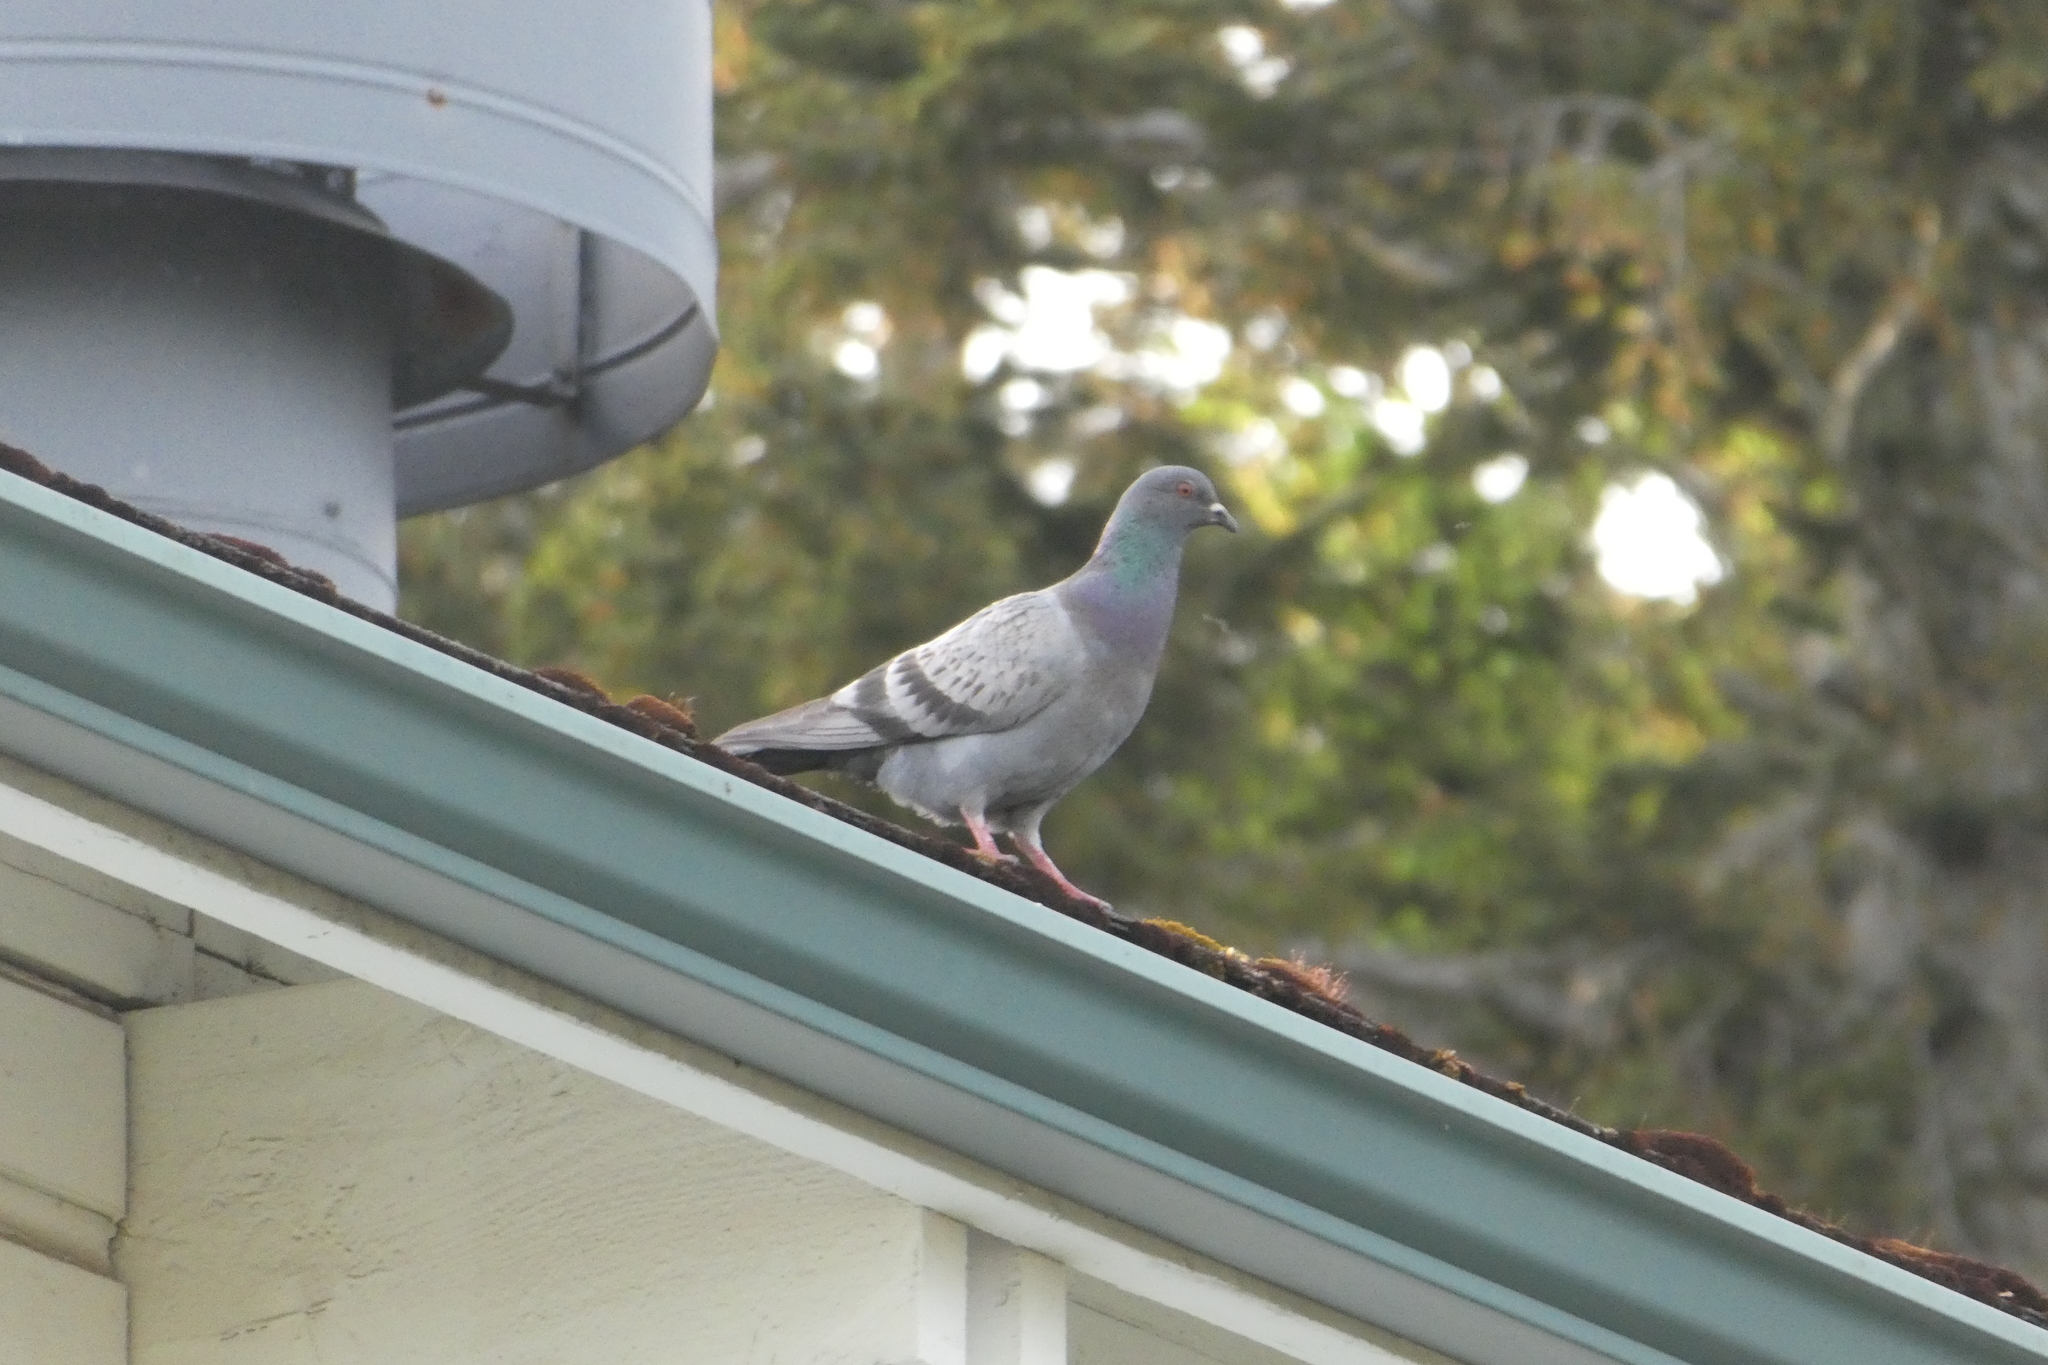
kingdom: Animalia
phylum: Chordata
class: Aves
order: Columbiformes
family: Columbidae
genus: Columba
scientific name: Columba livia
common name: Rock pigeon
